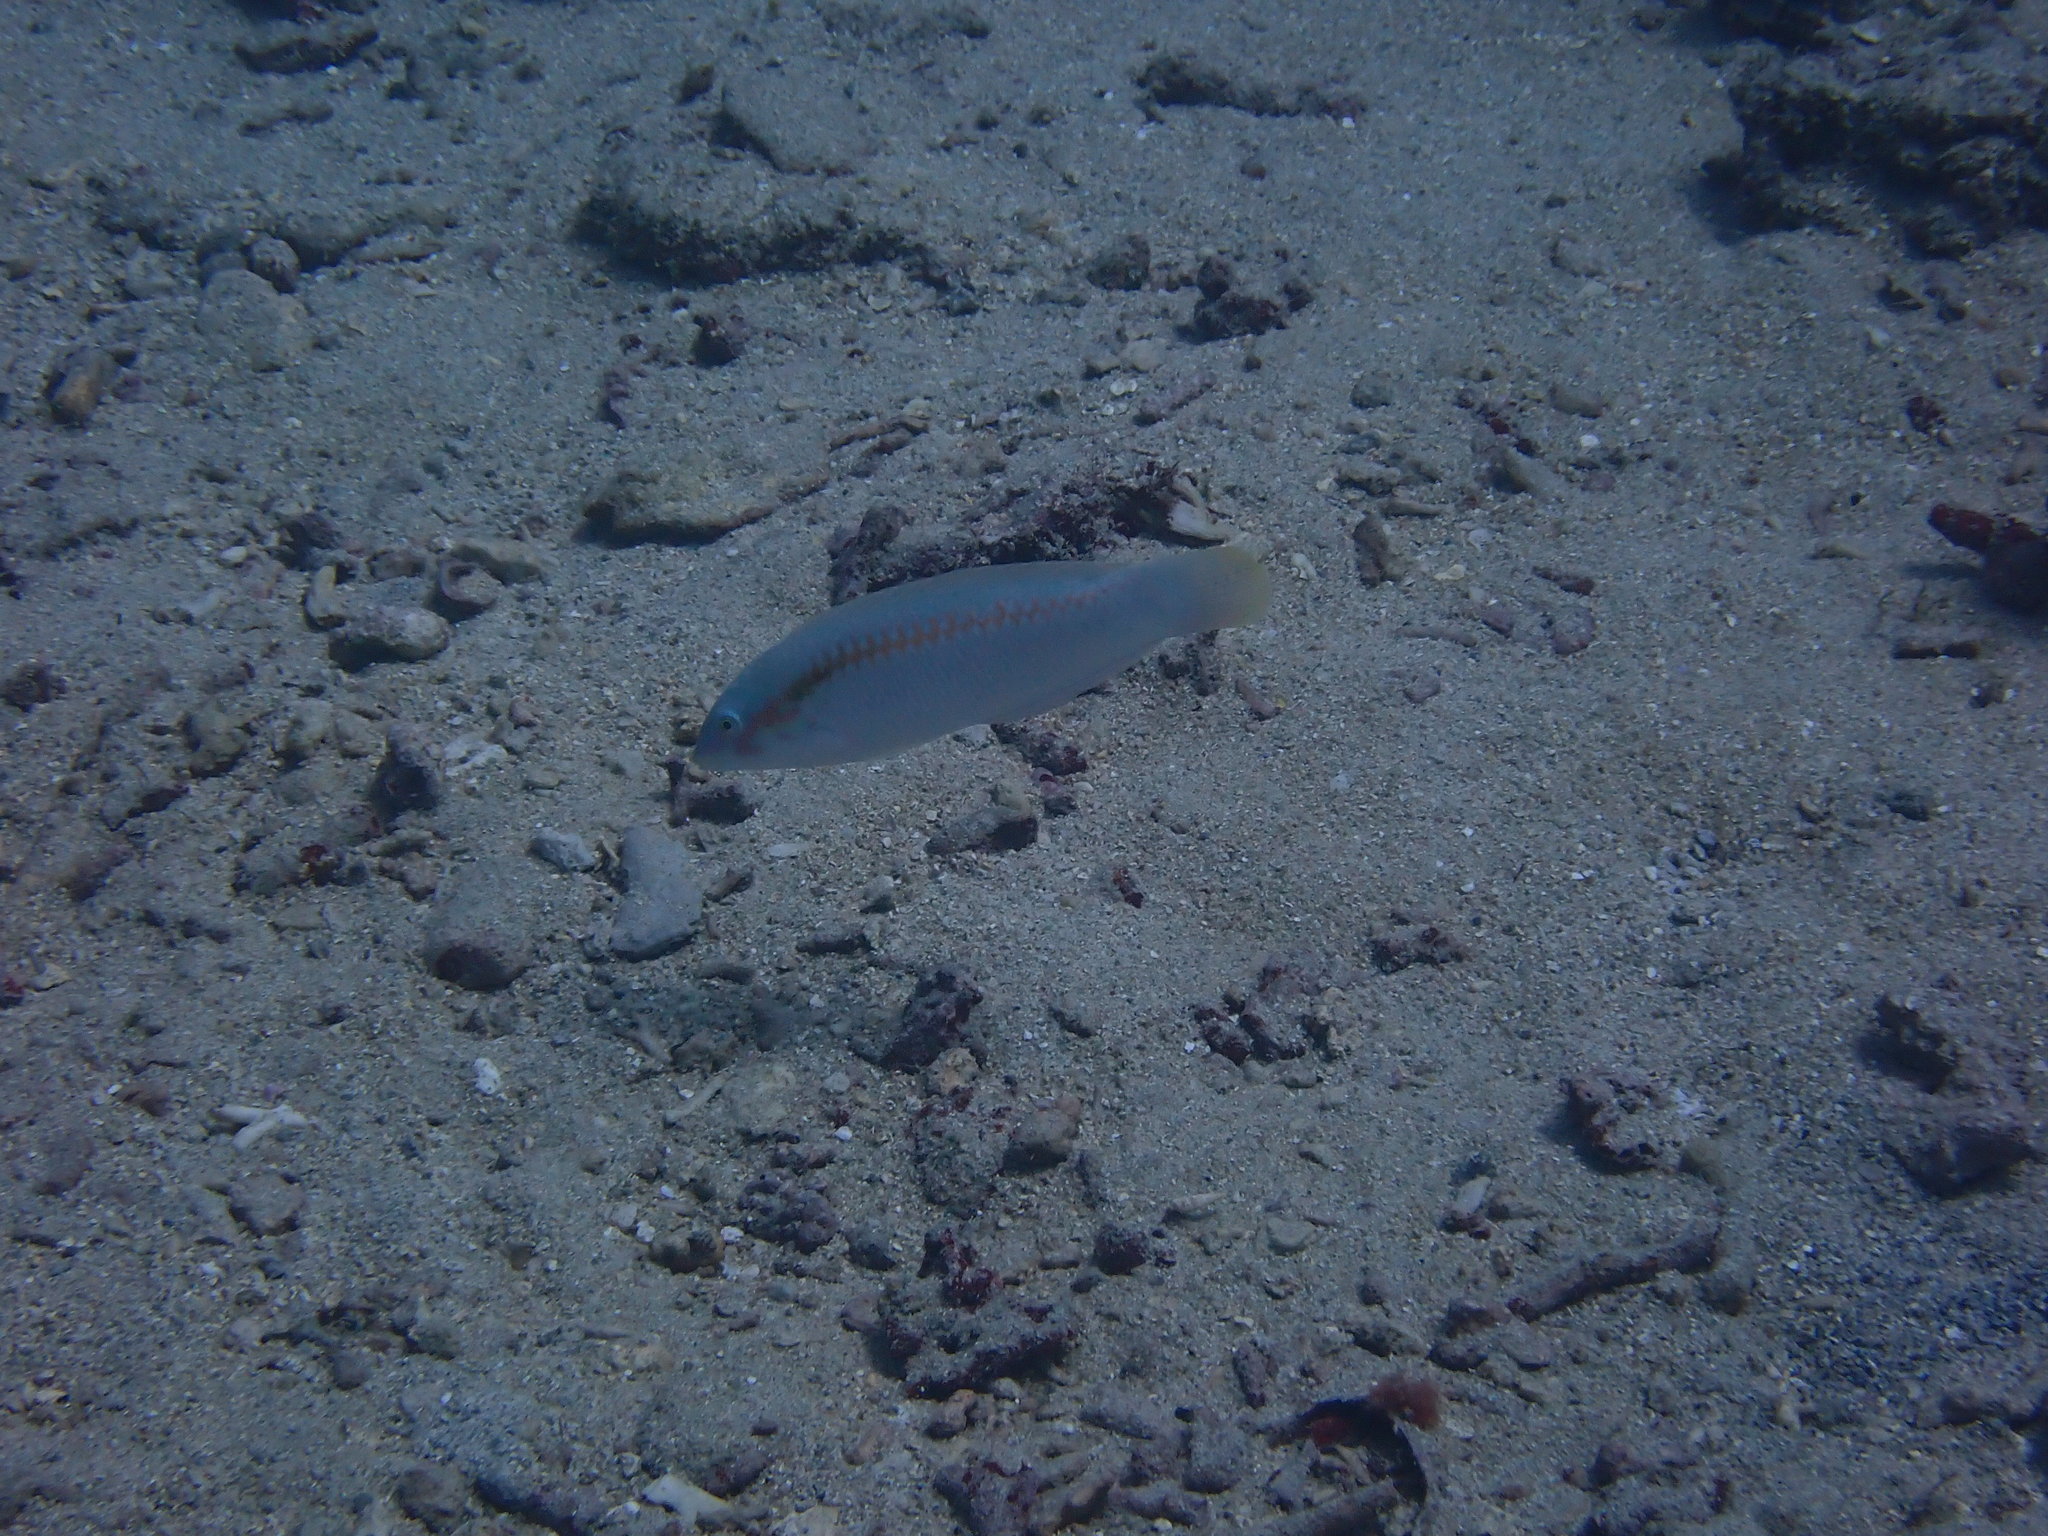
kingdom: Animalia
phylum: Chordata
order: Perciformes
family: Labridae
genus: Halichoeres
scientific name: Halichoeres scapularis
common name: Brownbanded wrasse
